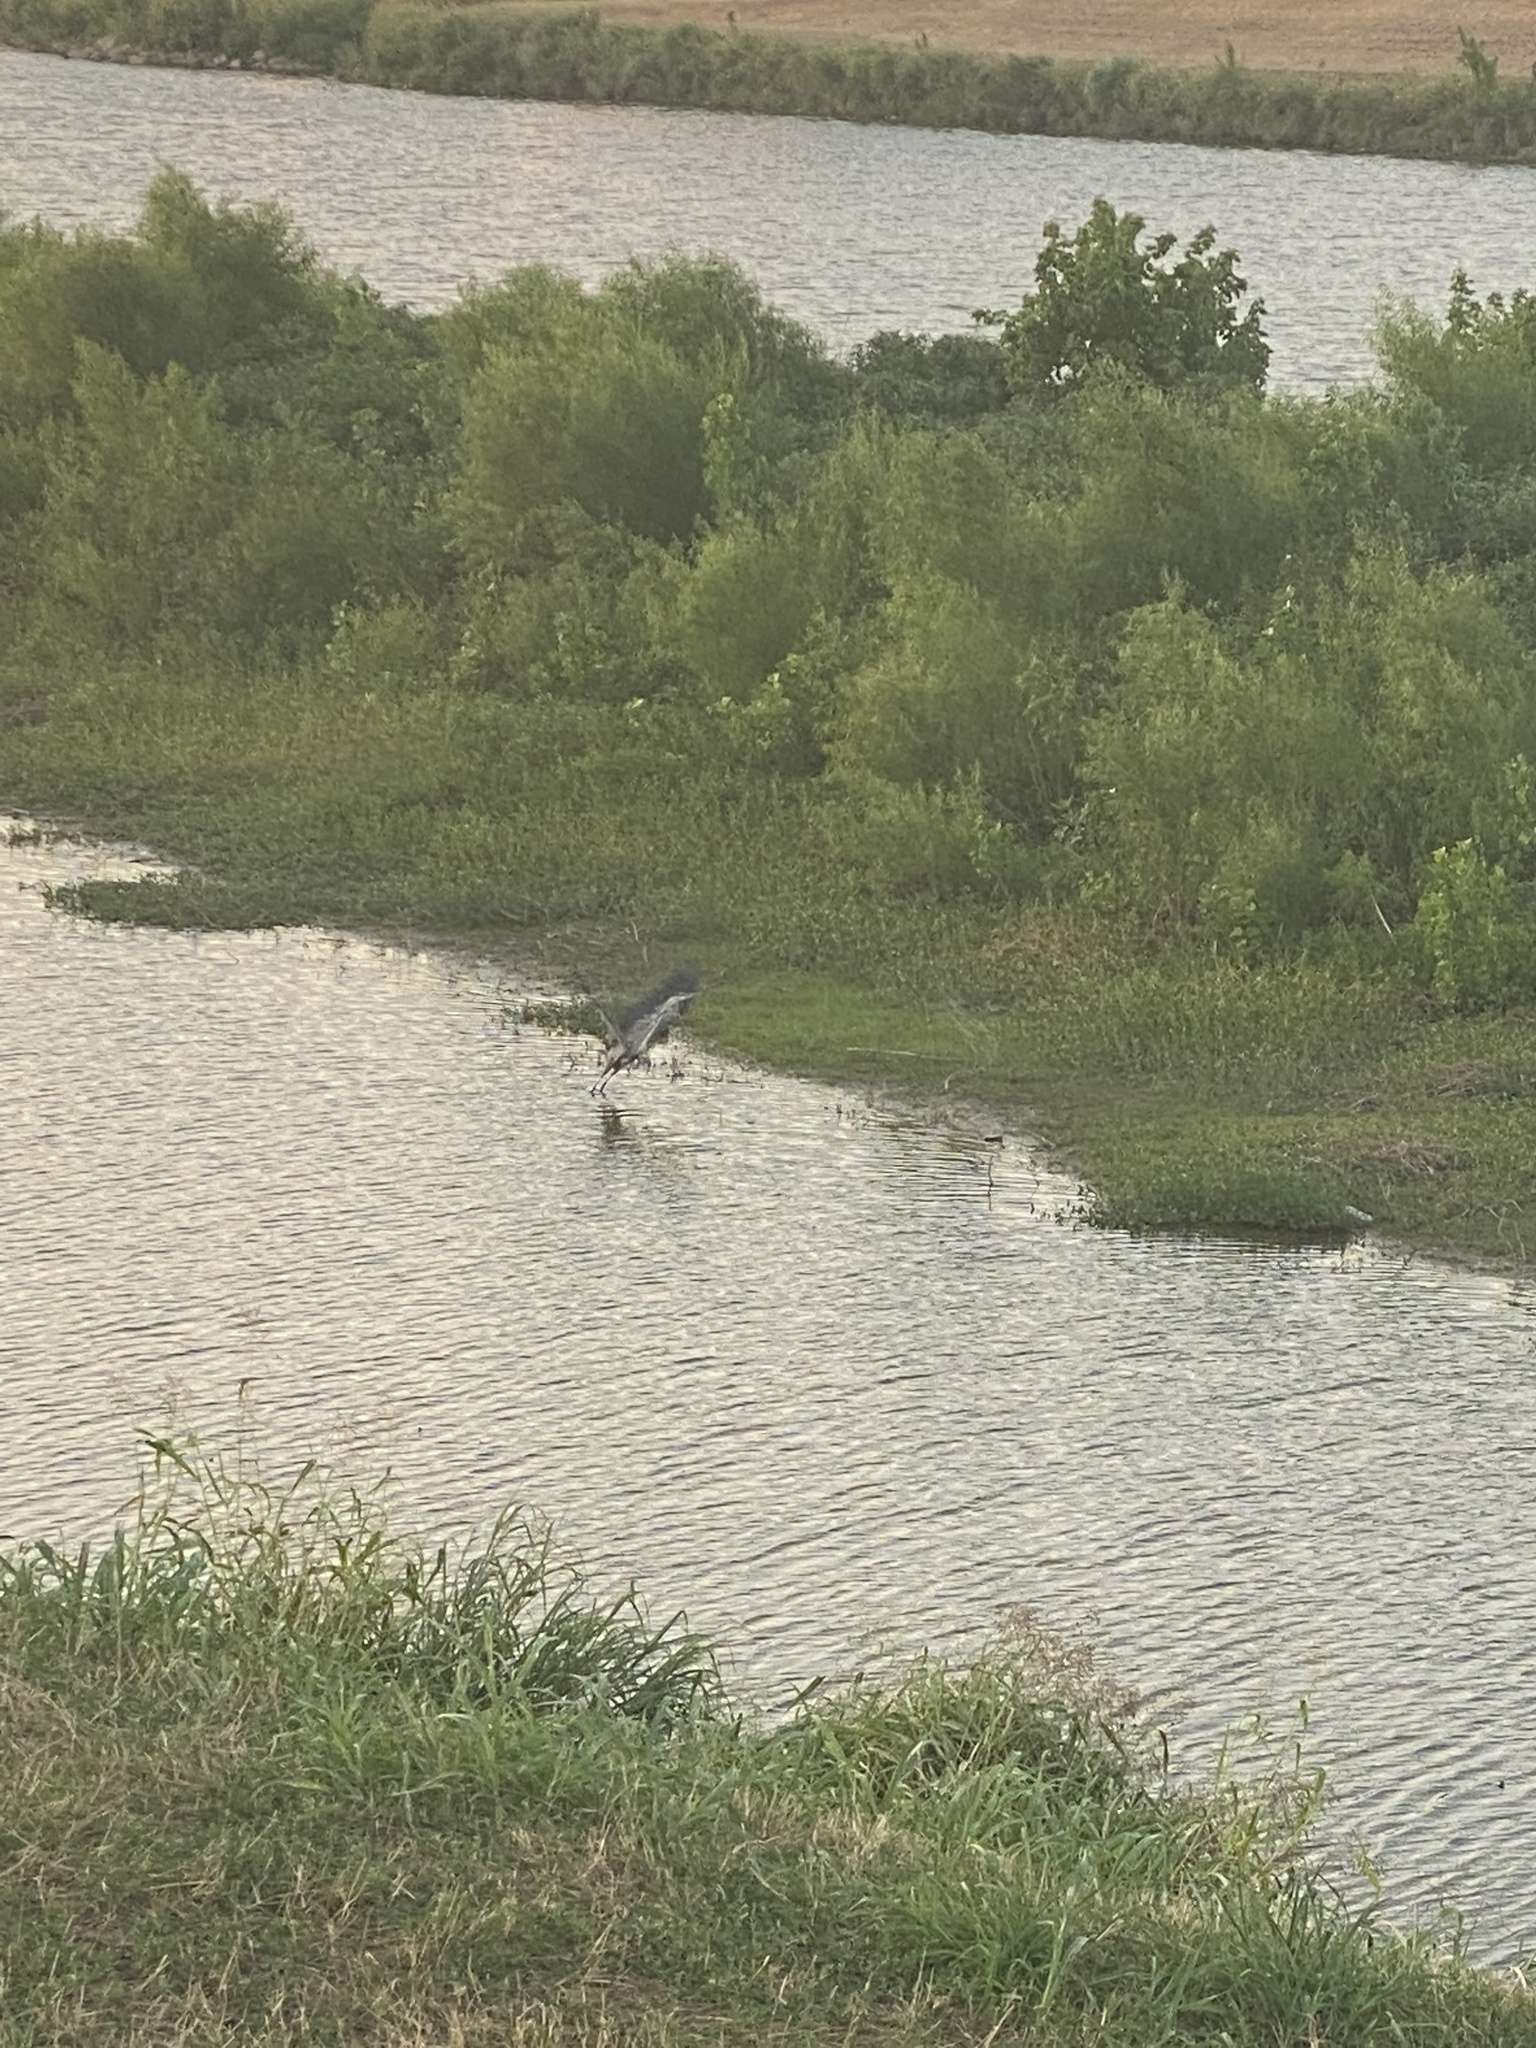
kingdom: Animalia
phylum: Chordata
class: Aves
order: Pelecaniformes
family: Ardeidae
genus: Ardea
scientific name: Ardea herodias
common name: Great blue heron
